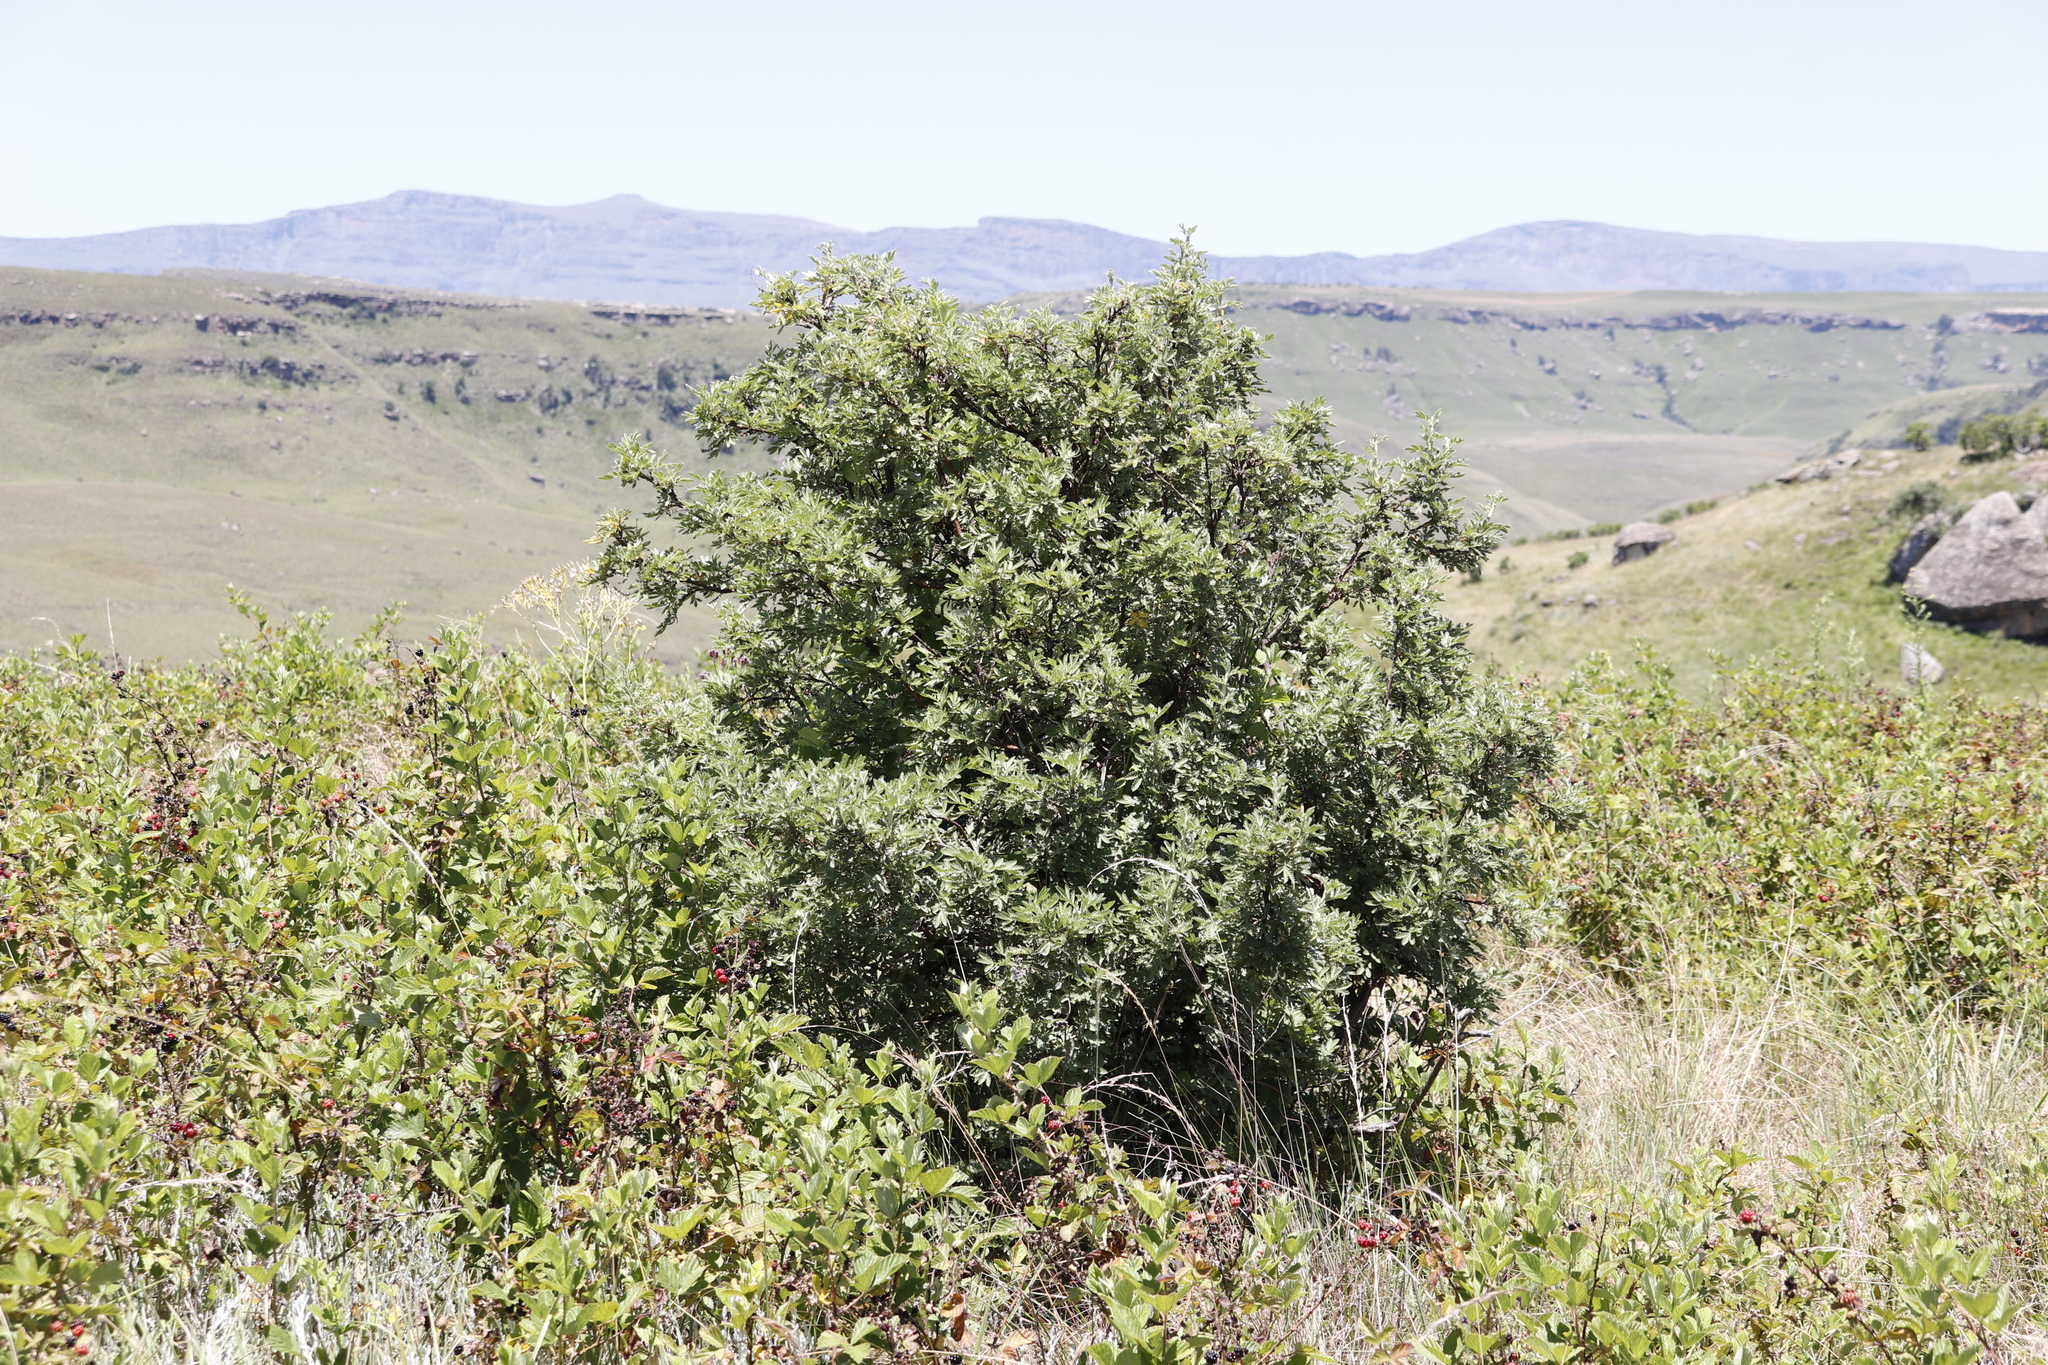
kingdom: Plantae
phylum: Tracheophyta
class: Magnoliopsida
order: Rosales
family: Rosaceae
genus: Leucosidea
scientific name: Leucosidea sericea
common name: Oldwood
